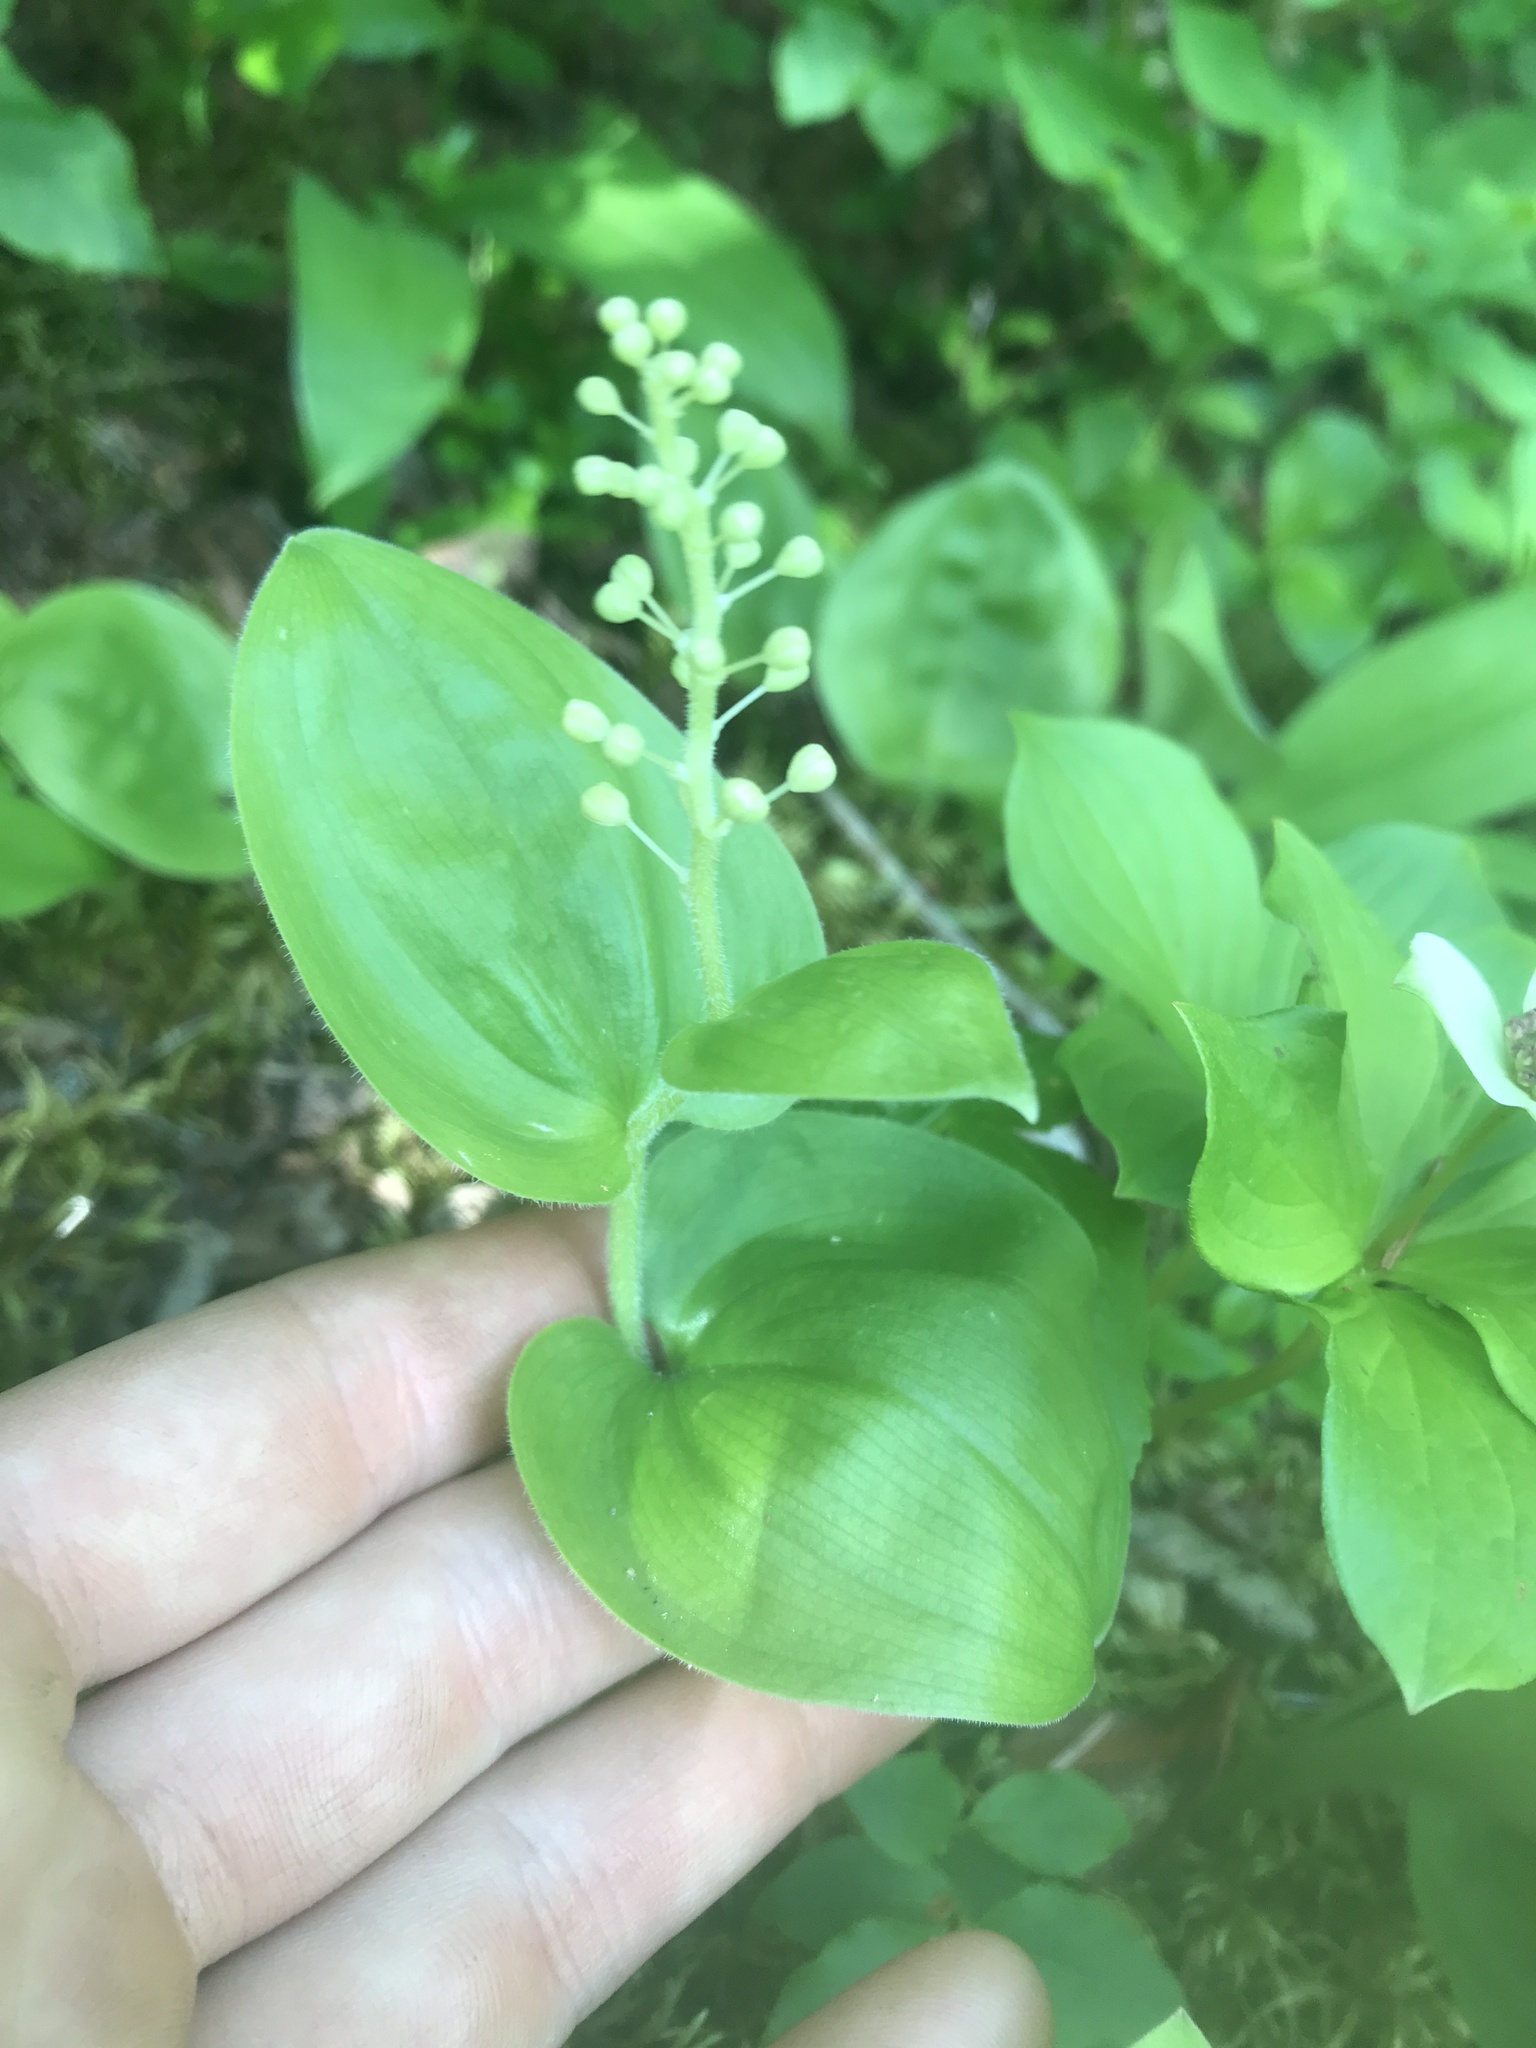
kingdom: Plantae
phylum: Tracheophyta
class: Liliopsida
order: Asparagales
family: Asparagaceae
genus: Maianthemum
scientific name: Maianthemum canadense
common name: False lily-of-the-valley
